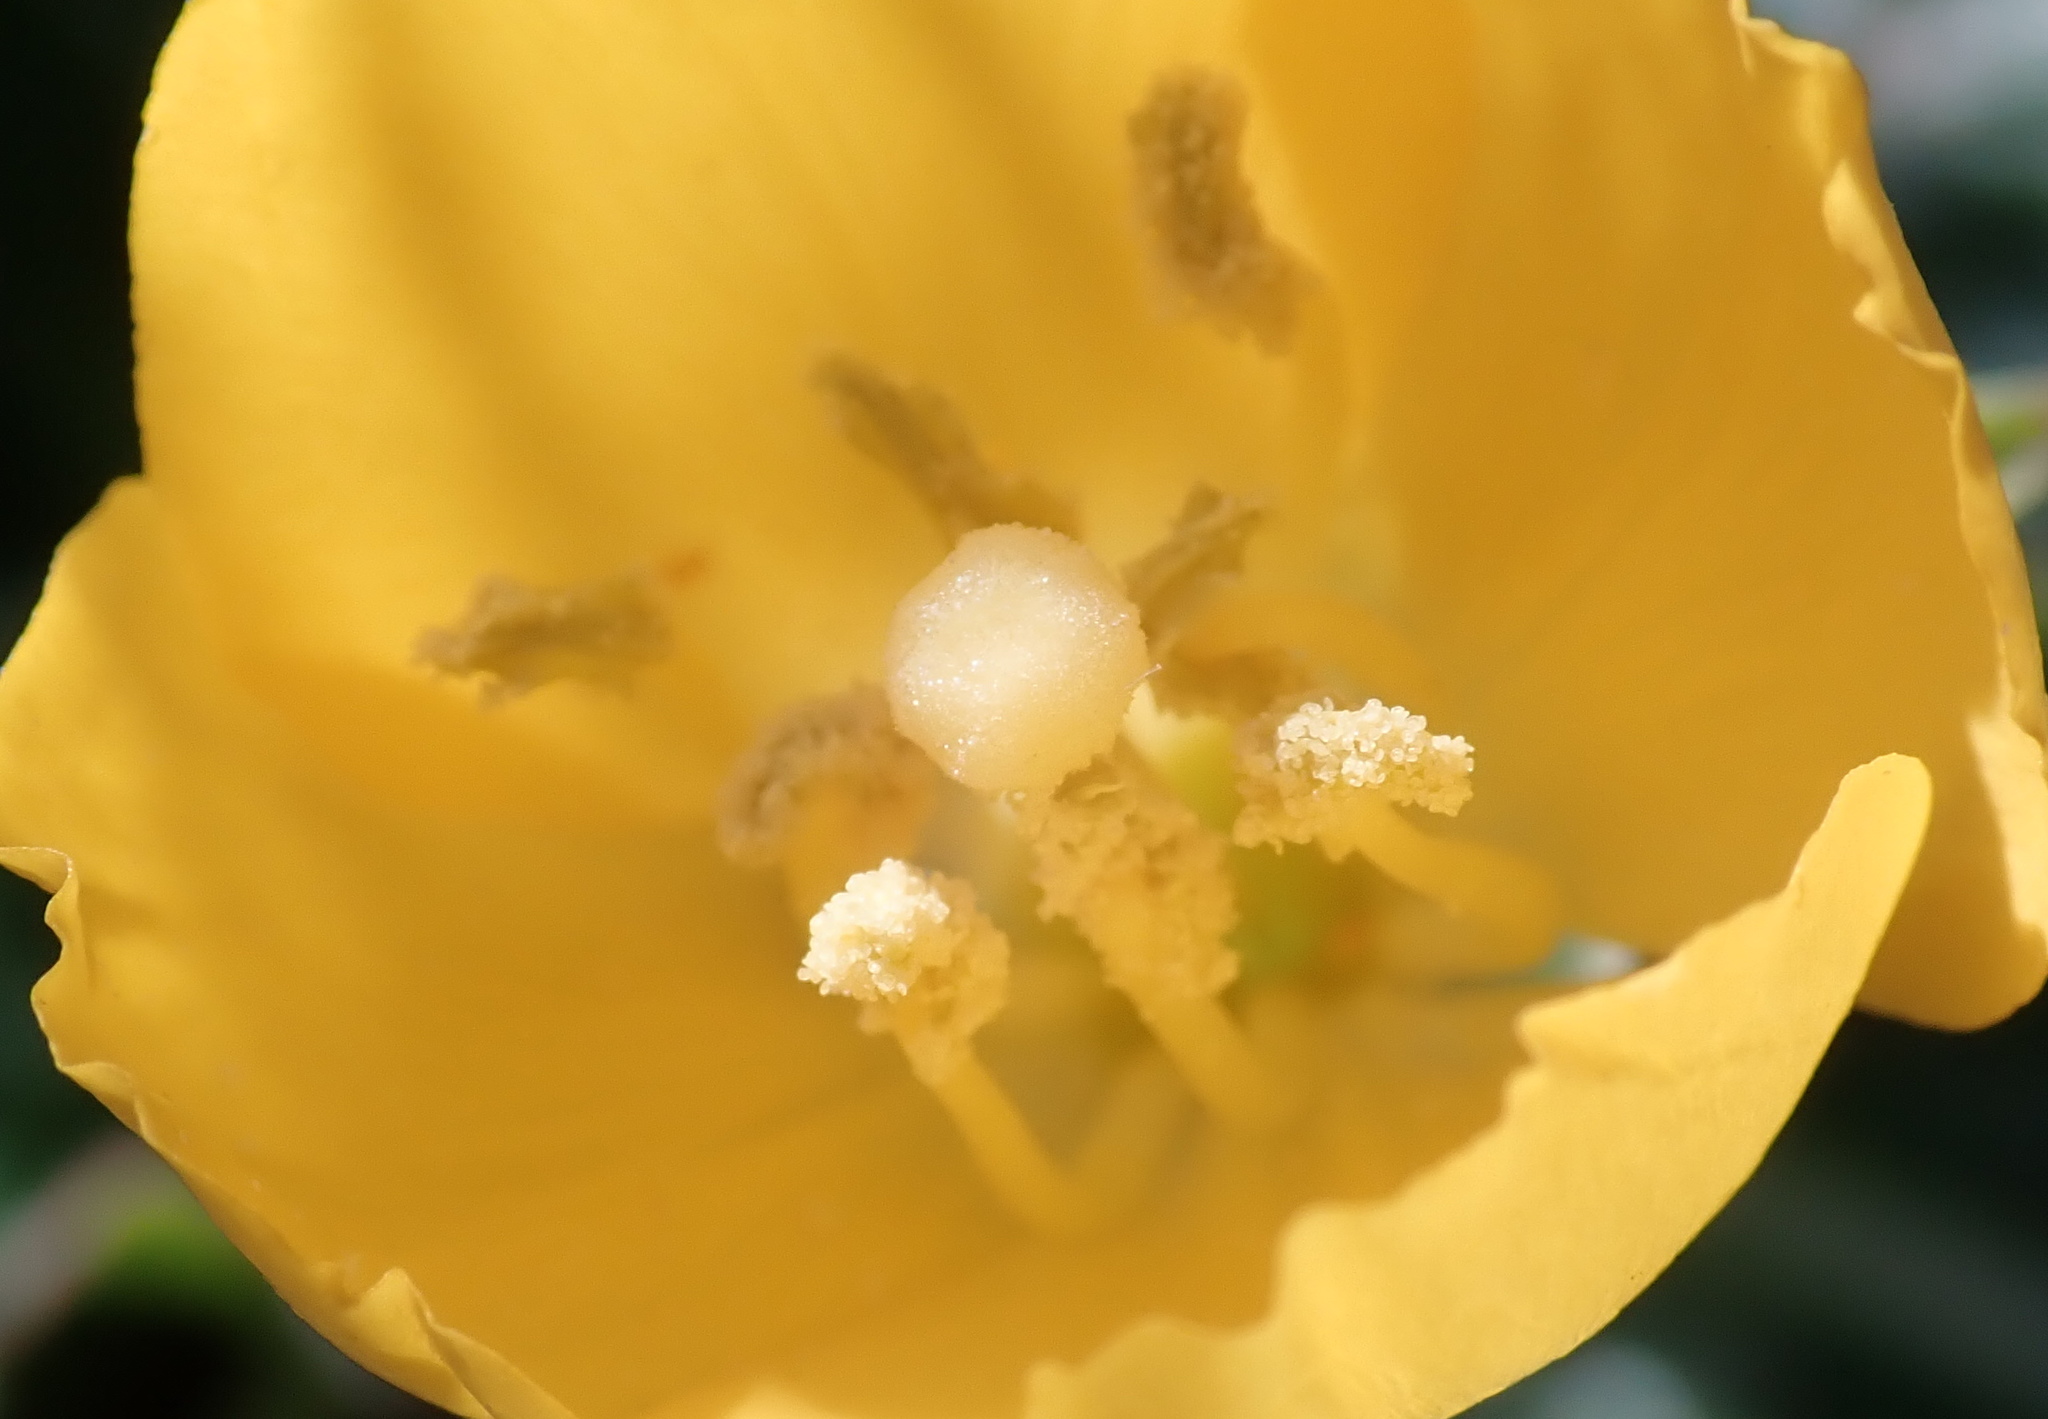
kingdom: Plantae
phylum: Tracheophyta
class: Magnoliopsida
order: Myrtales
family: Onagraceae
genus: Taraxia
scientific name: Taraxia ovata
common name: Goldeneggs
